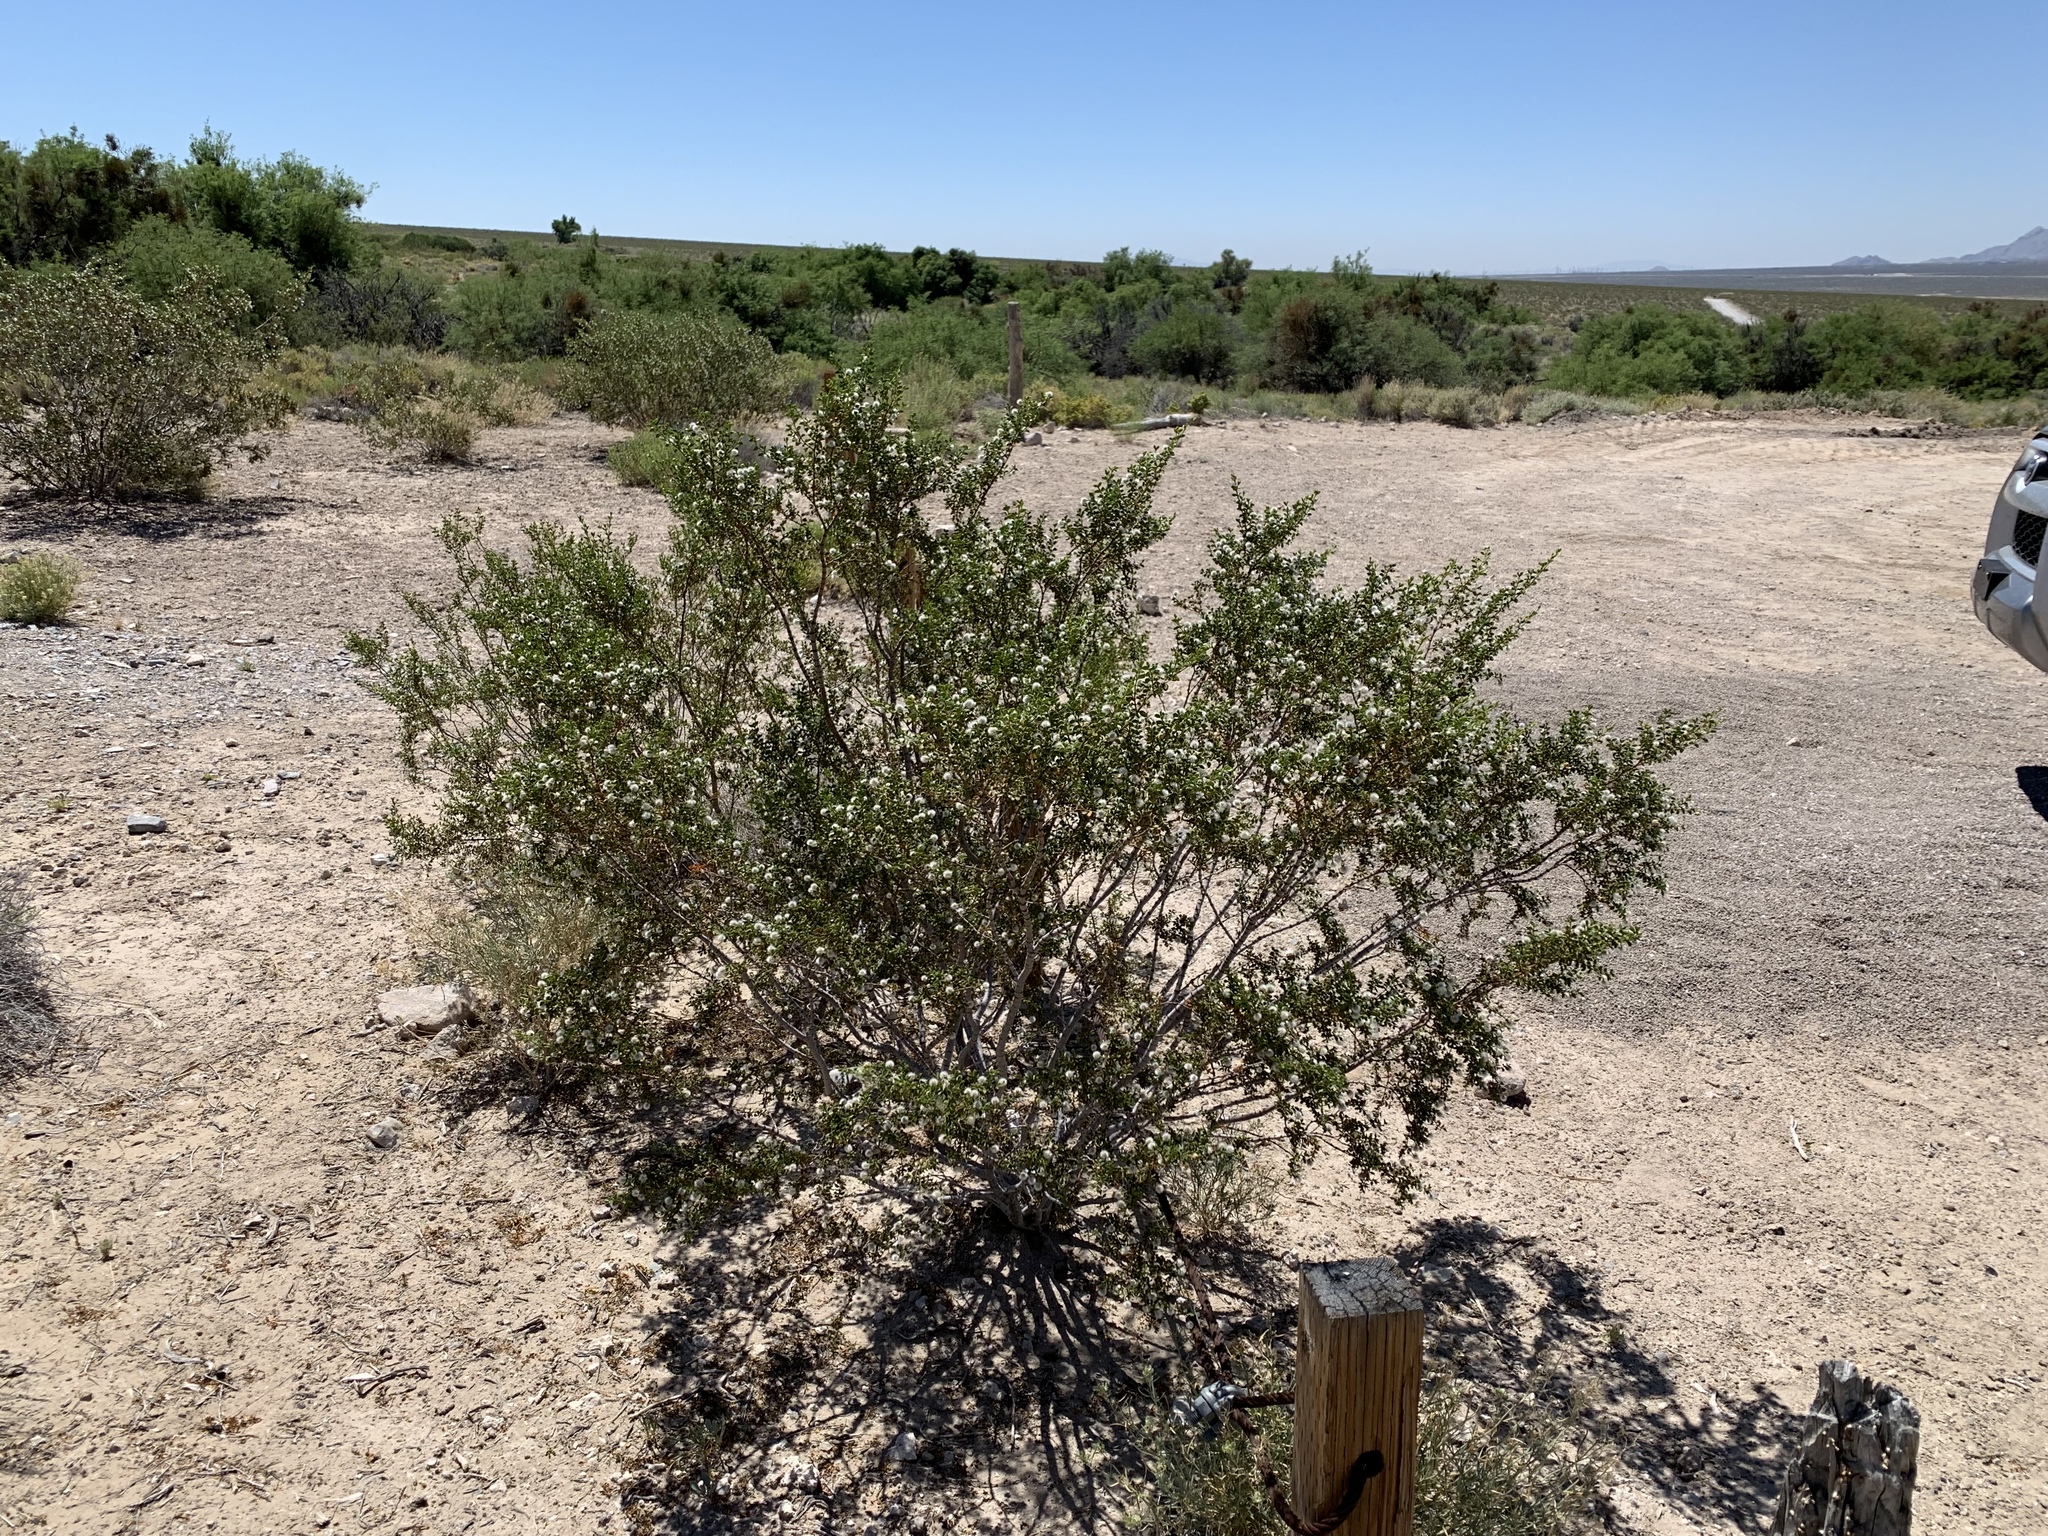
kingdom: Plantae
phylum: Tracheophyta
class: Magnoliopsida
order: Zygophyllales
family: Zygophyllaceae
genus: Larrea
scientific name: Larrea tridentata
